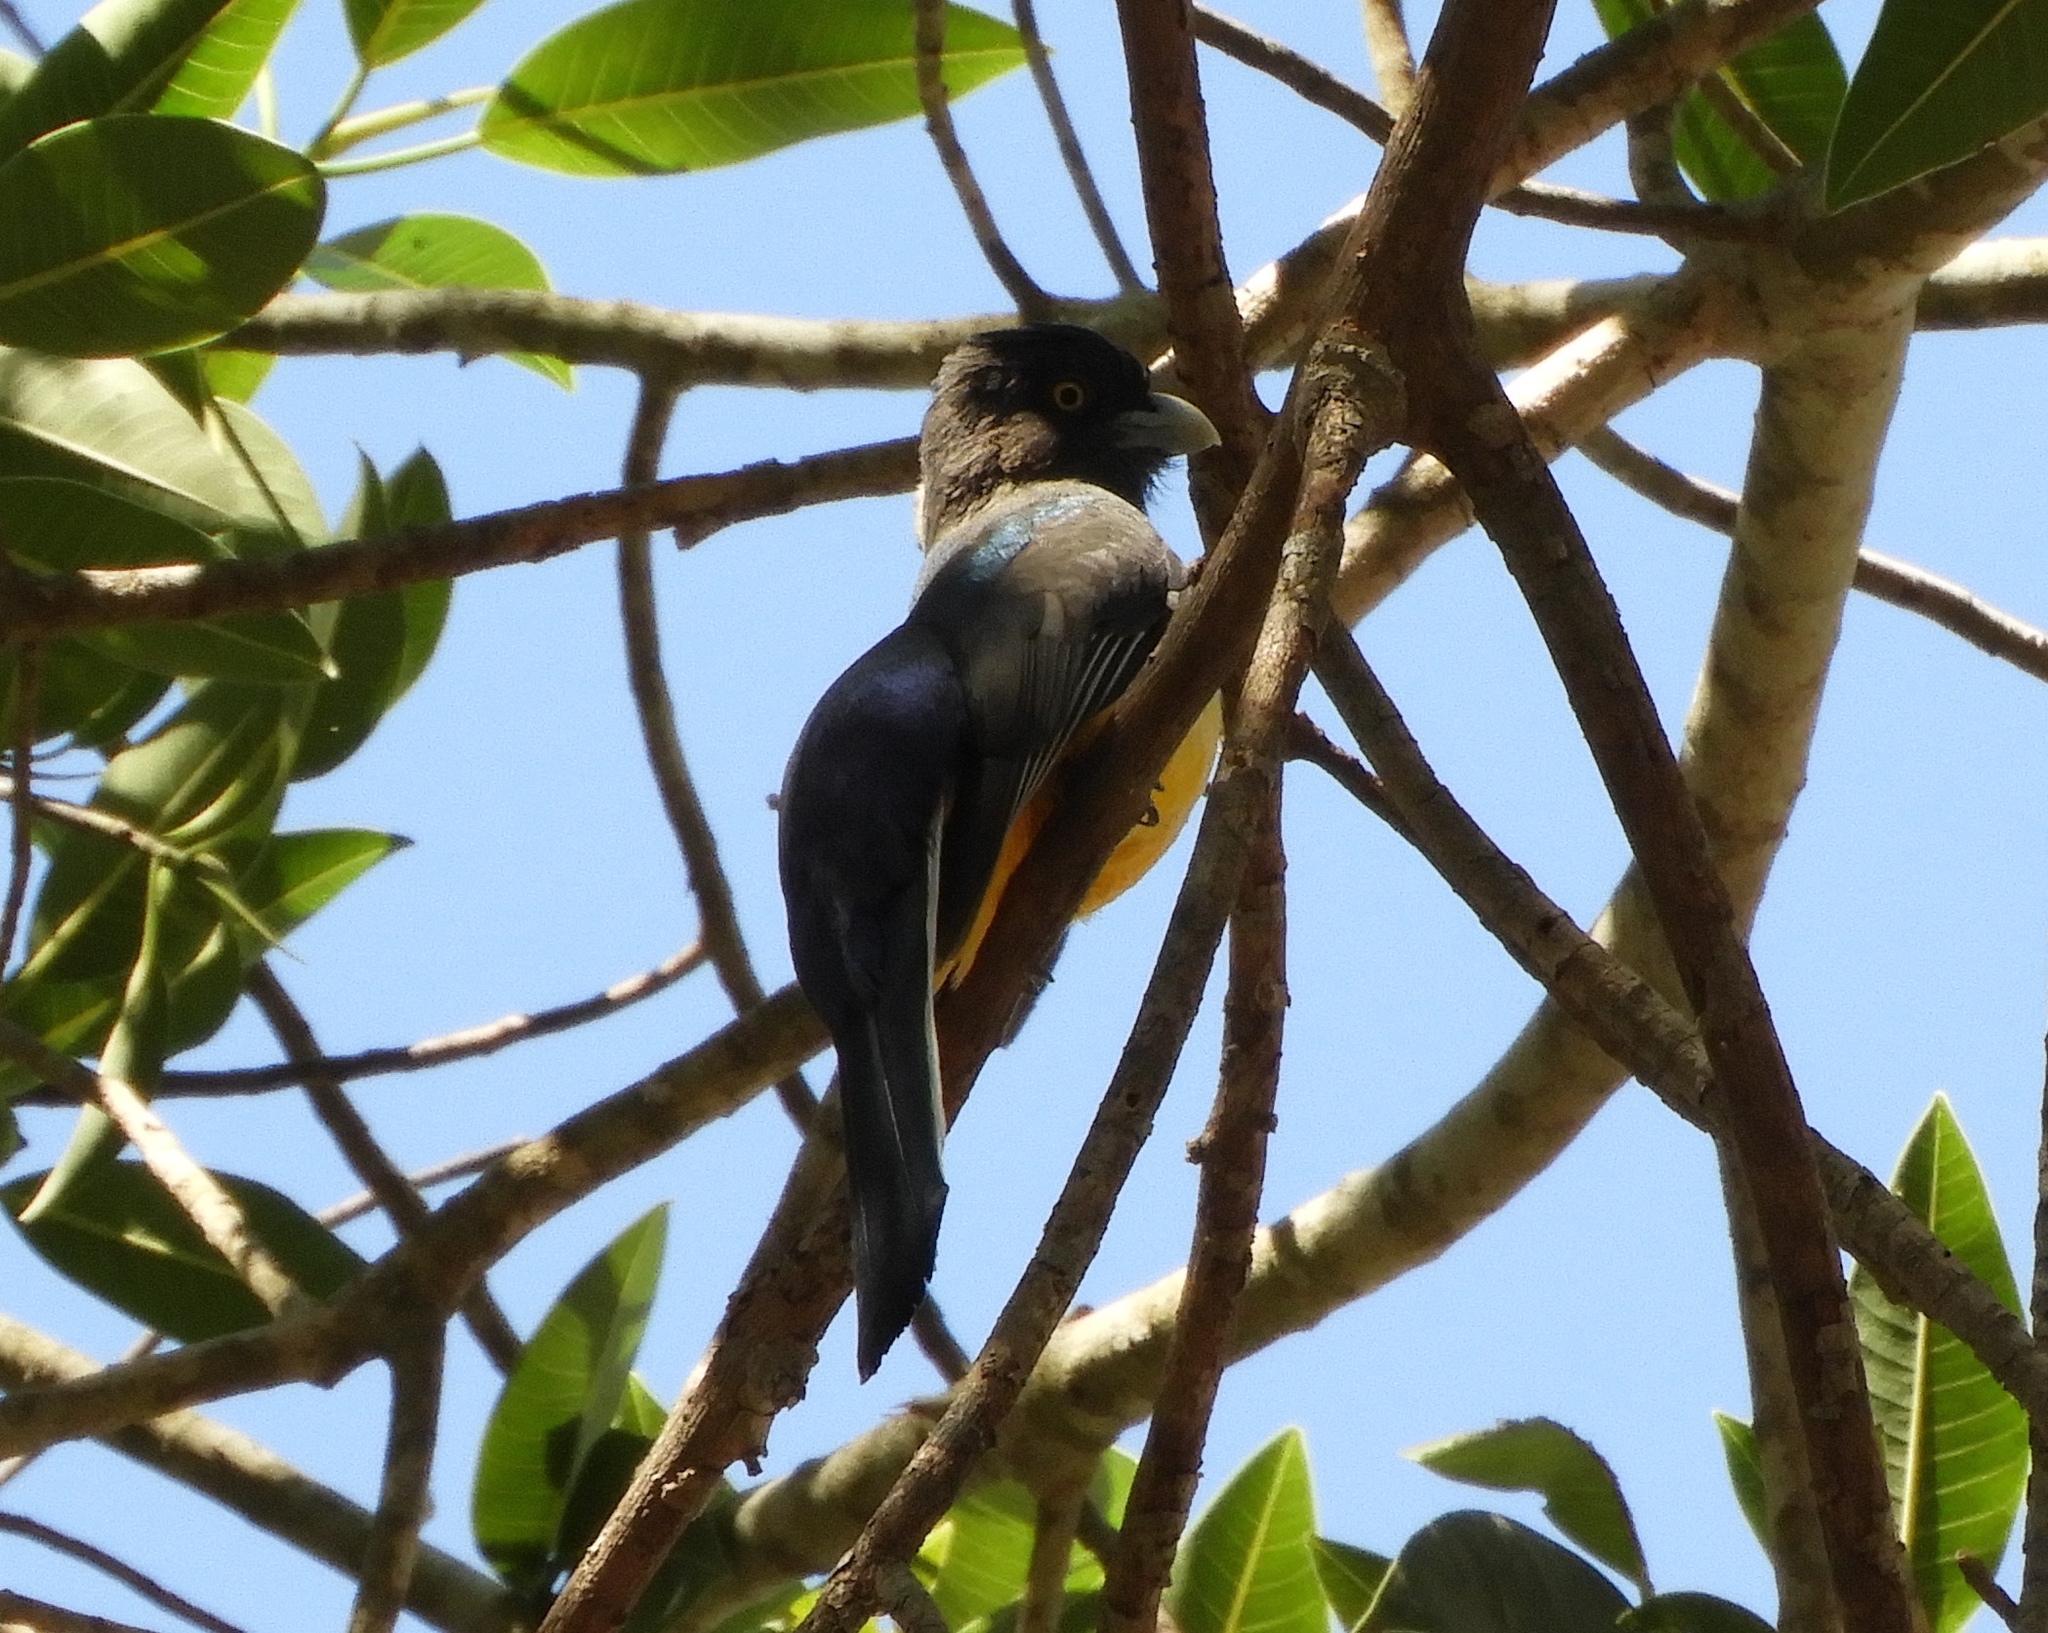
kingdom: Animalia
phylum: Chordata
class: Aves
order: Trogoniformes
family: Trogonidae
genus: Trogon
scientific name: Trogon citreolus
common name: Citreoline trogon
